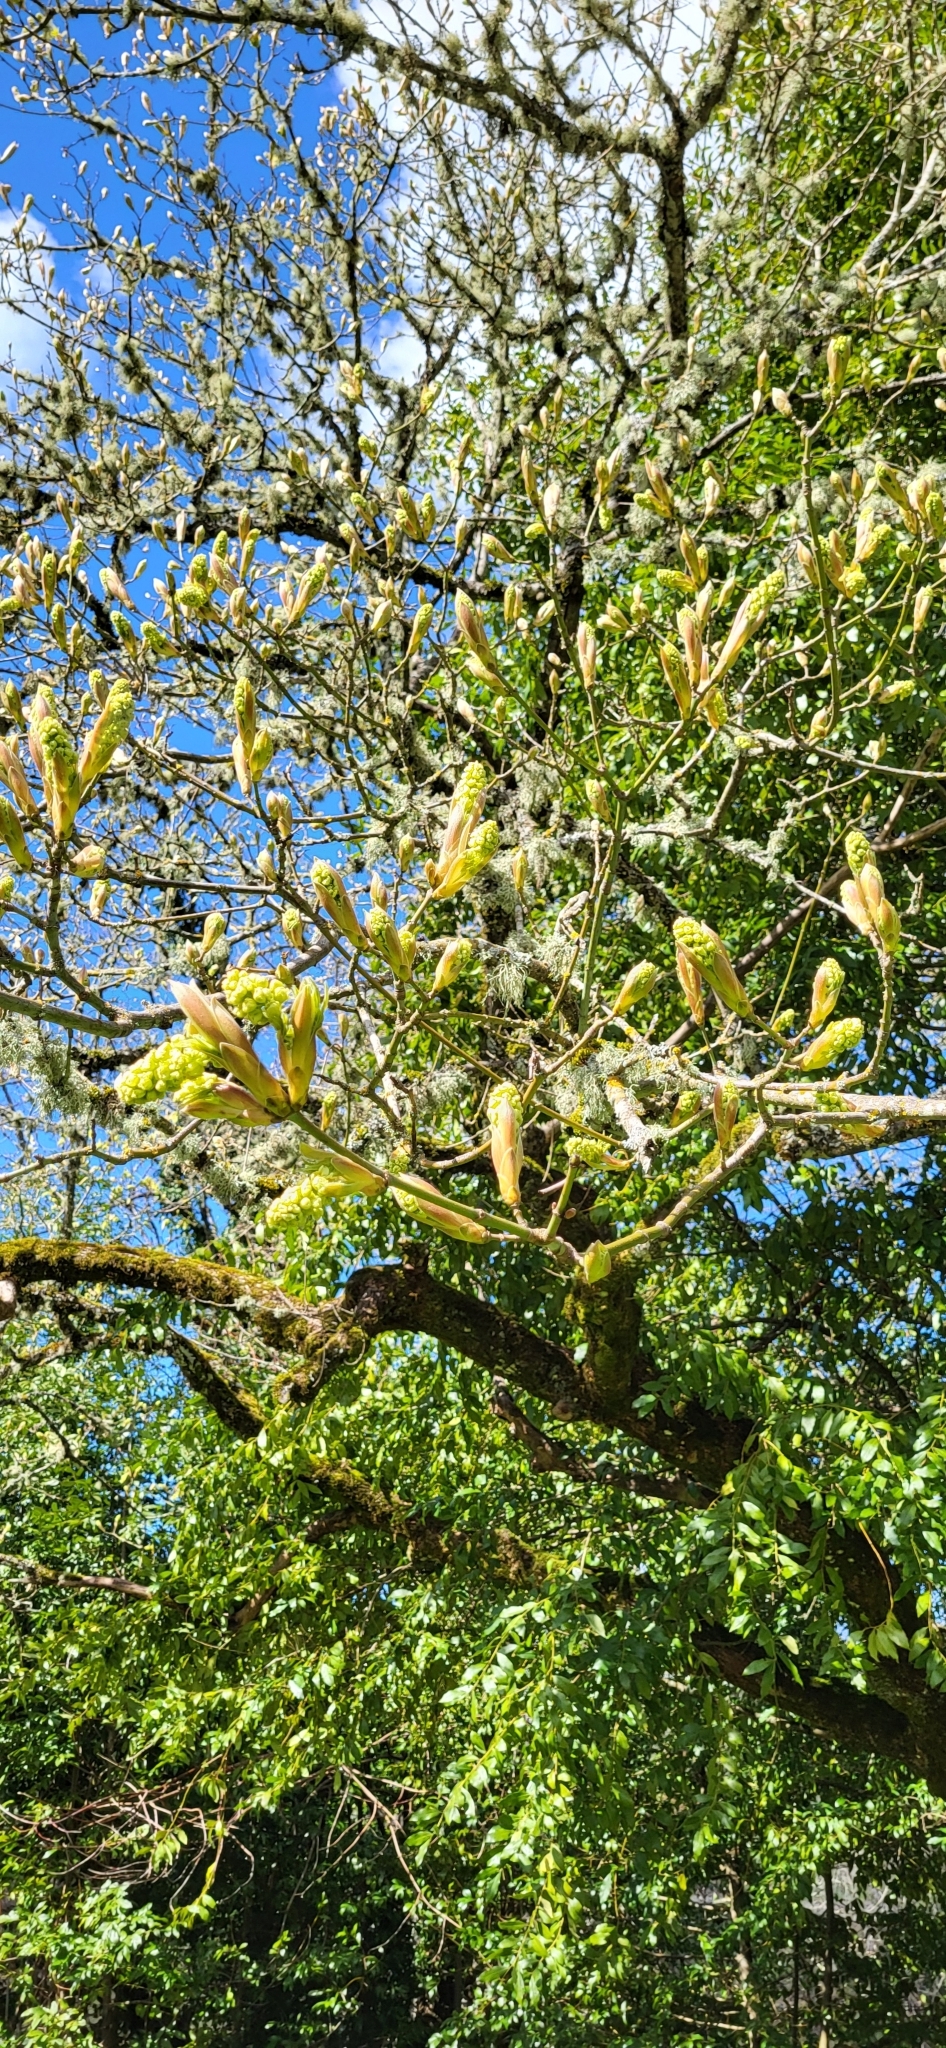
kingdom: Plantae
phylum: Tracheophyta
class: Magnoliopsida
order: Sapindales
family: Sapindaceae
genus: Acer
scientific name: Acer macrophyllum
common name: Oregon maple
